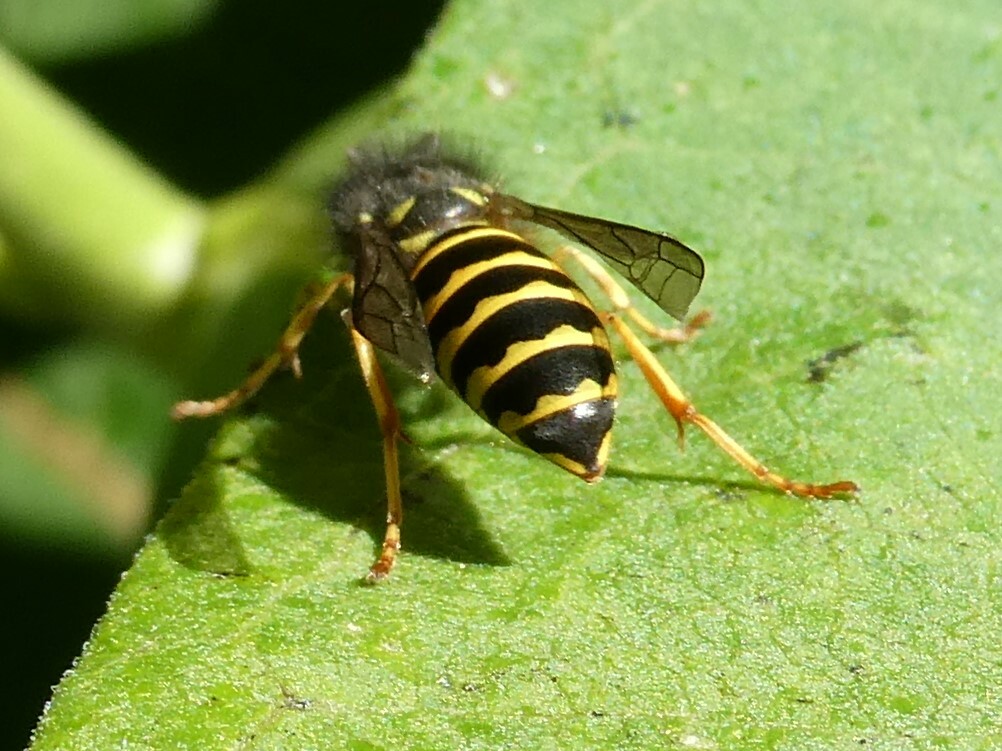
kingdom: Animalia
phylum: Arthropoda
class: Insecta
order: Hymenoptera
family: Vespidae
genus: Vespula
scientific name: Vespula alascensis
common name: Alaska yellowjacket
